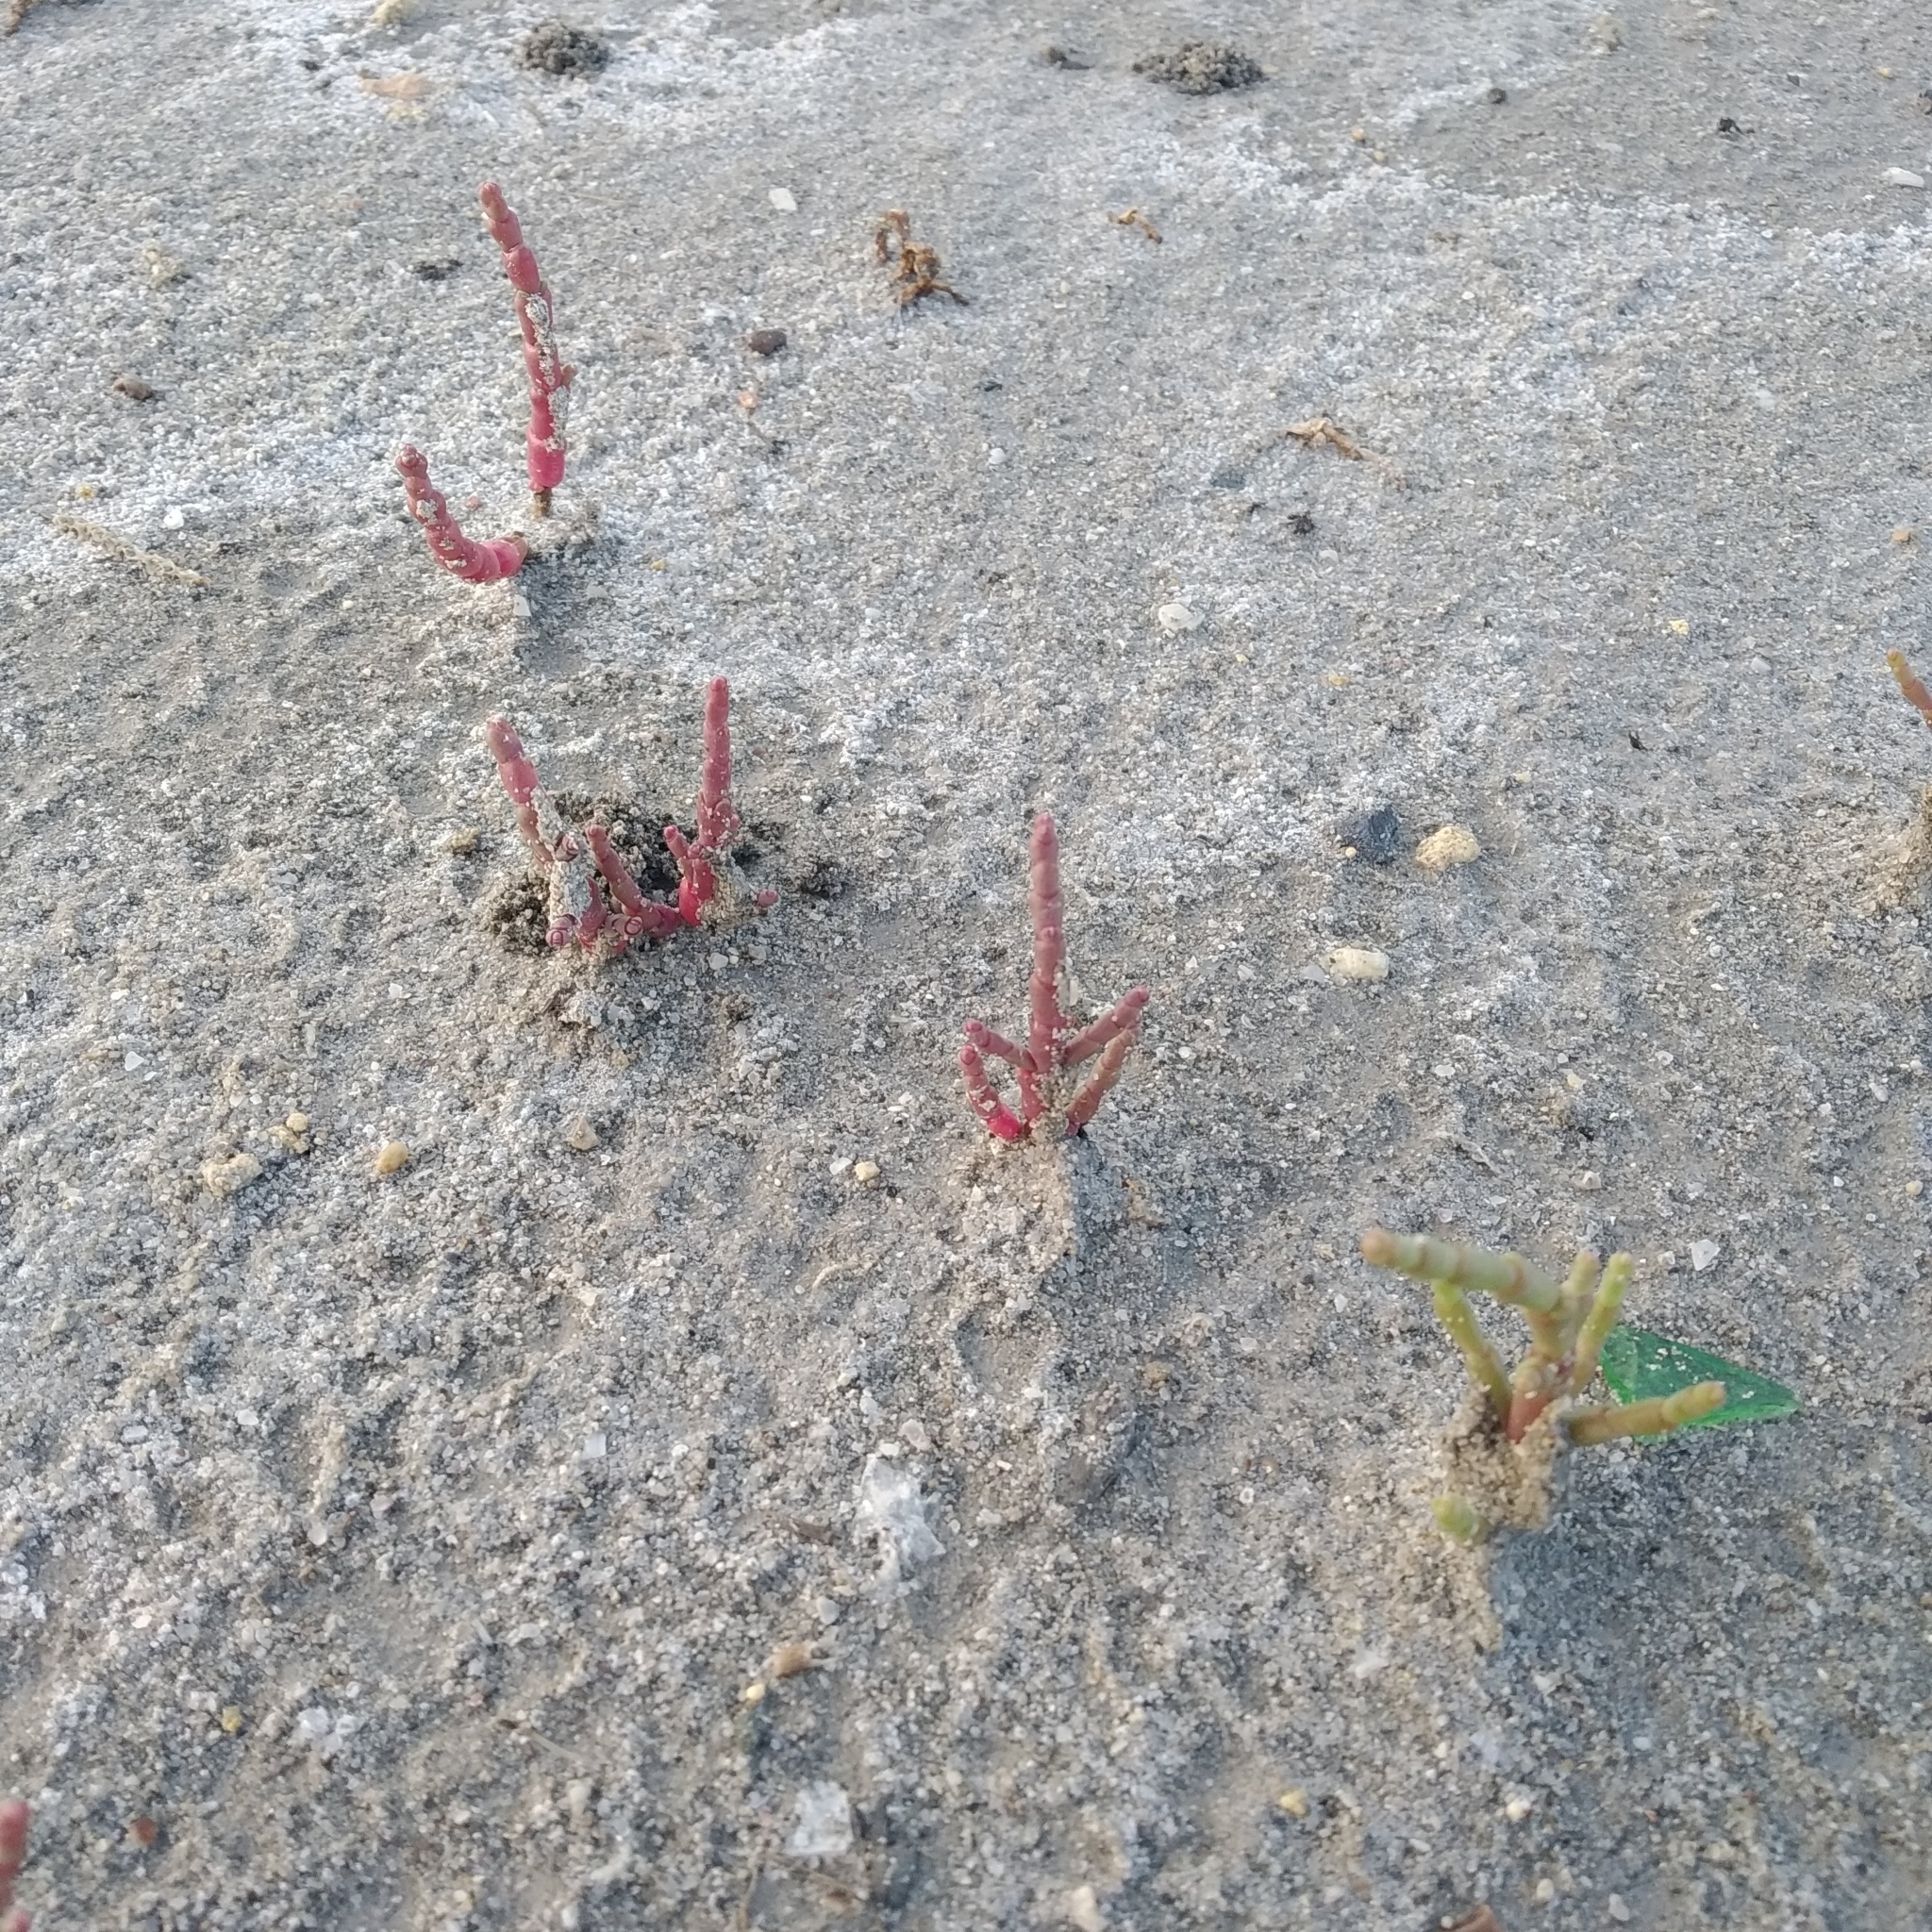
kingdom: Plantae
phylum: Tracheophyta
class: Magnoliopsida
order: Caryophyllales
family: Amaranthaceae
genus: Salicornia
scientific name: Salicornia perennans
